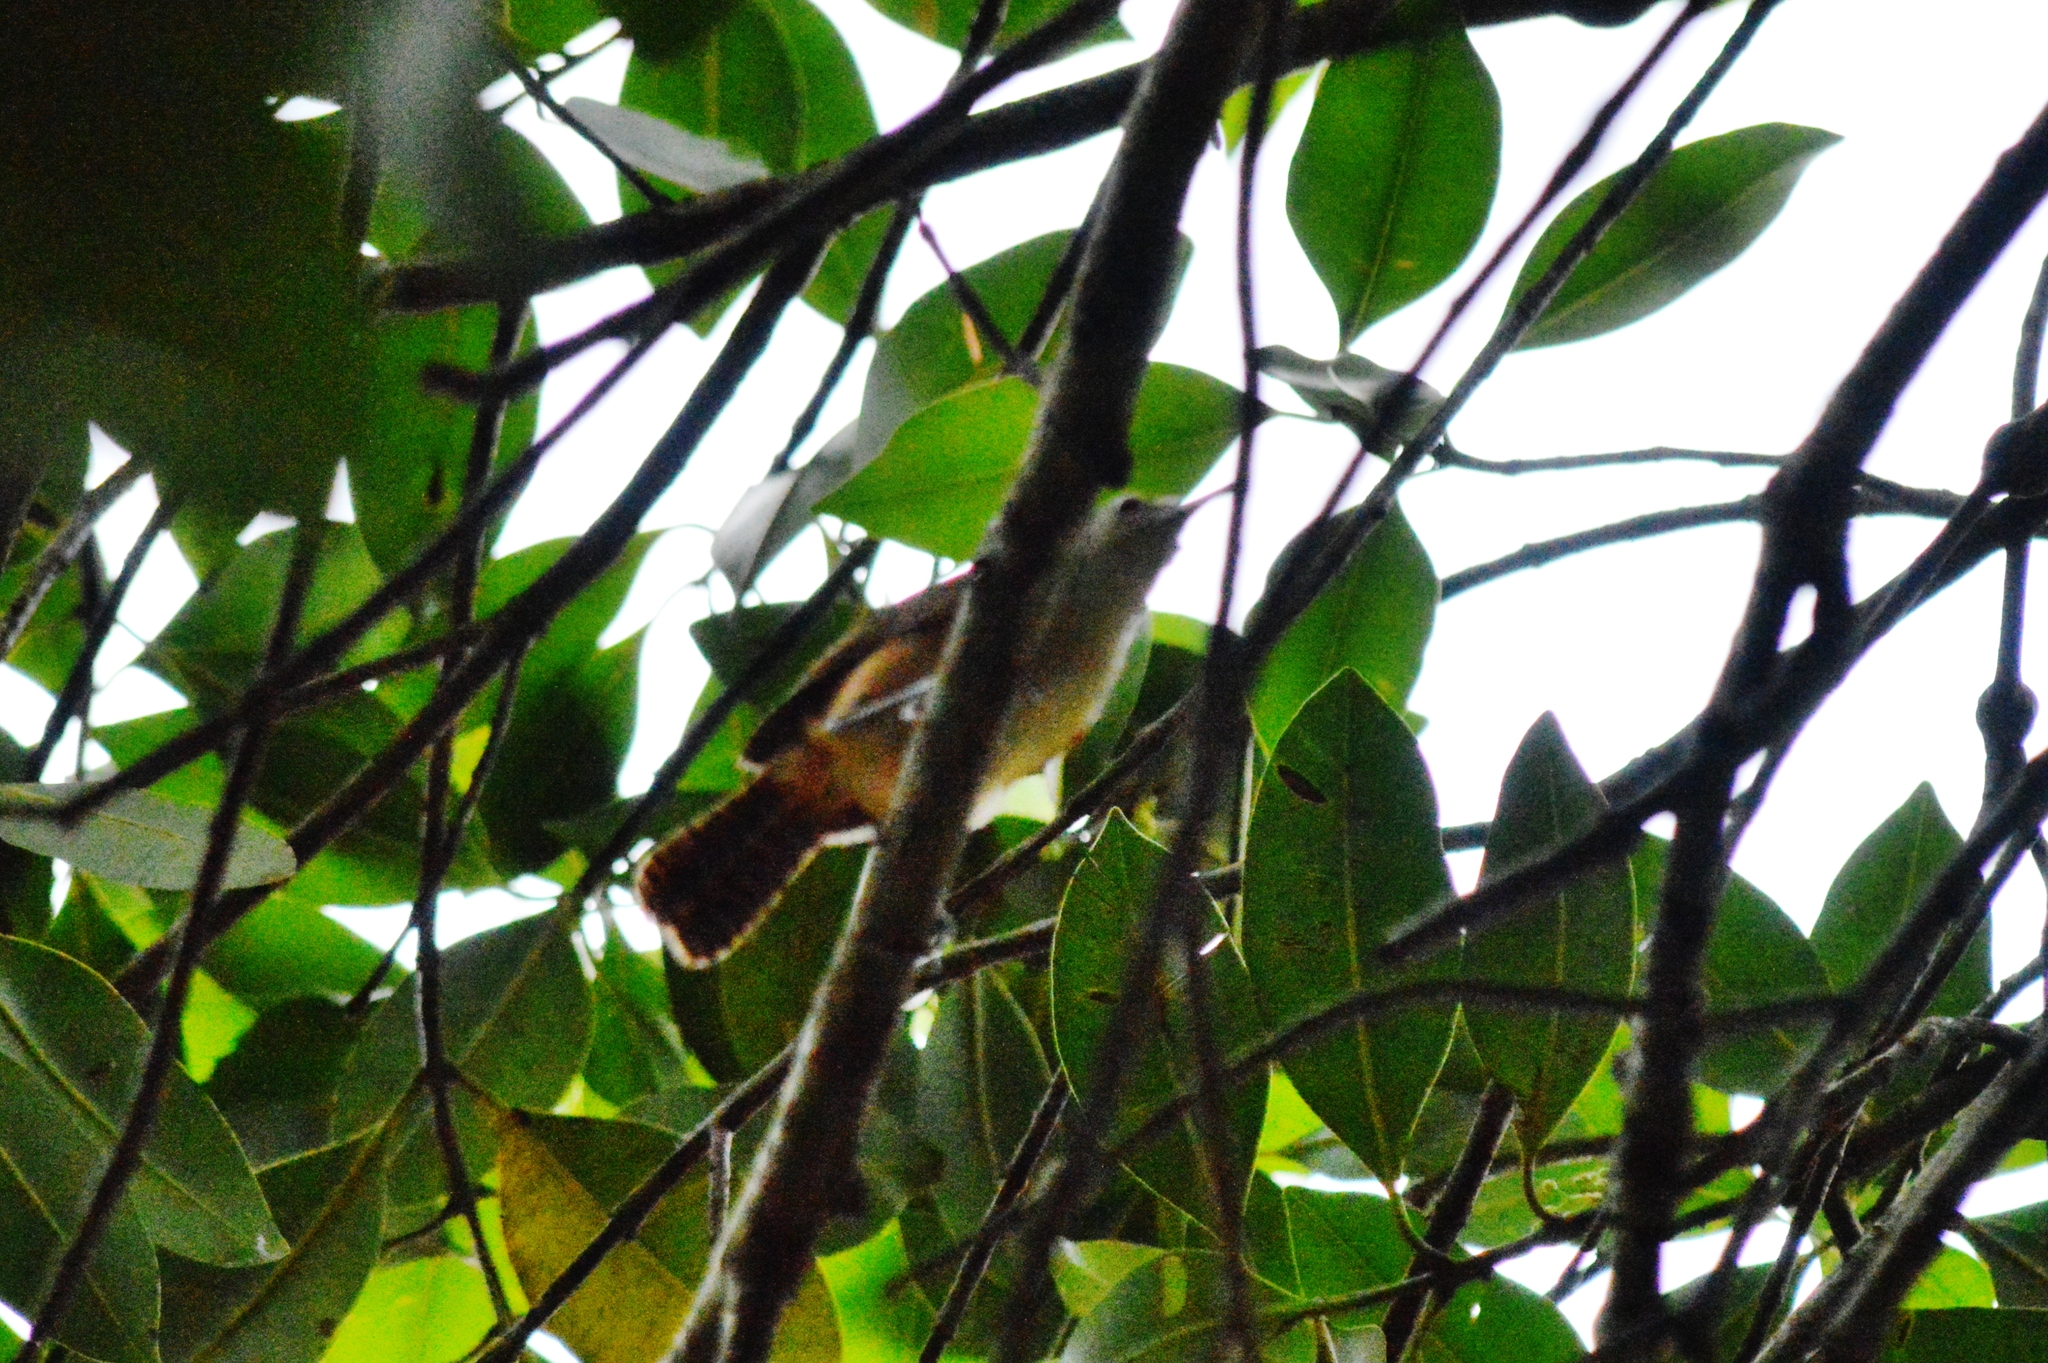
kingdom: Animalia
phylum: Chordata
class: Aves
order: Passeriformes
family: Troglodytidae
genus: Cantorchilus
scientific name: Cantorchilus leucotis
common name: Buff-breasted wren
